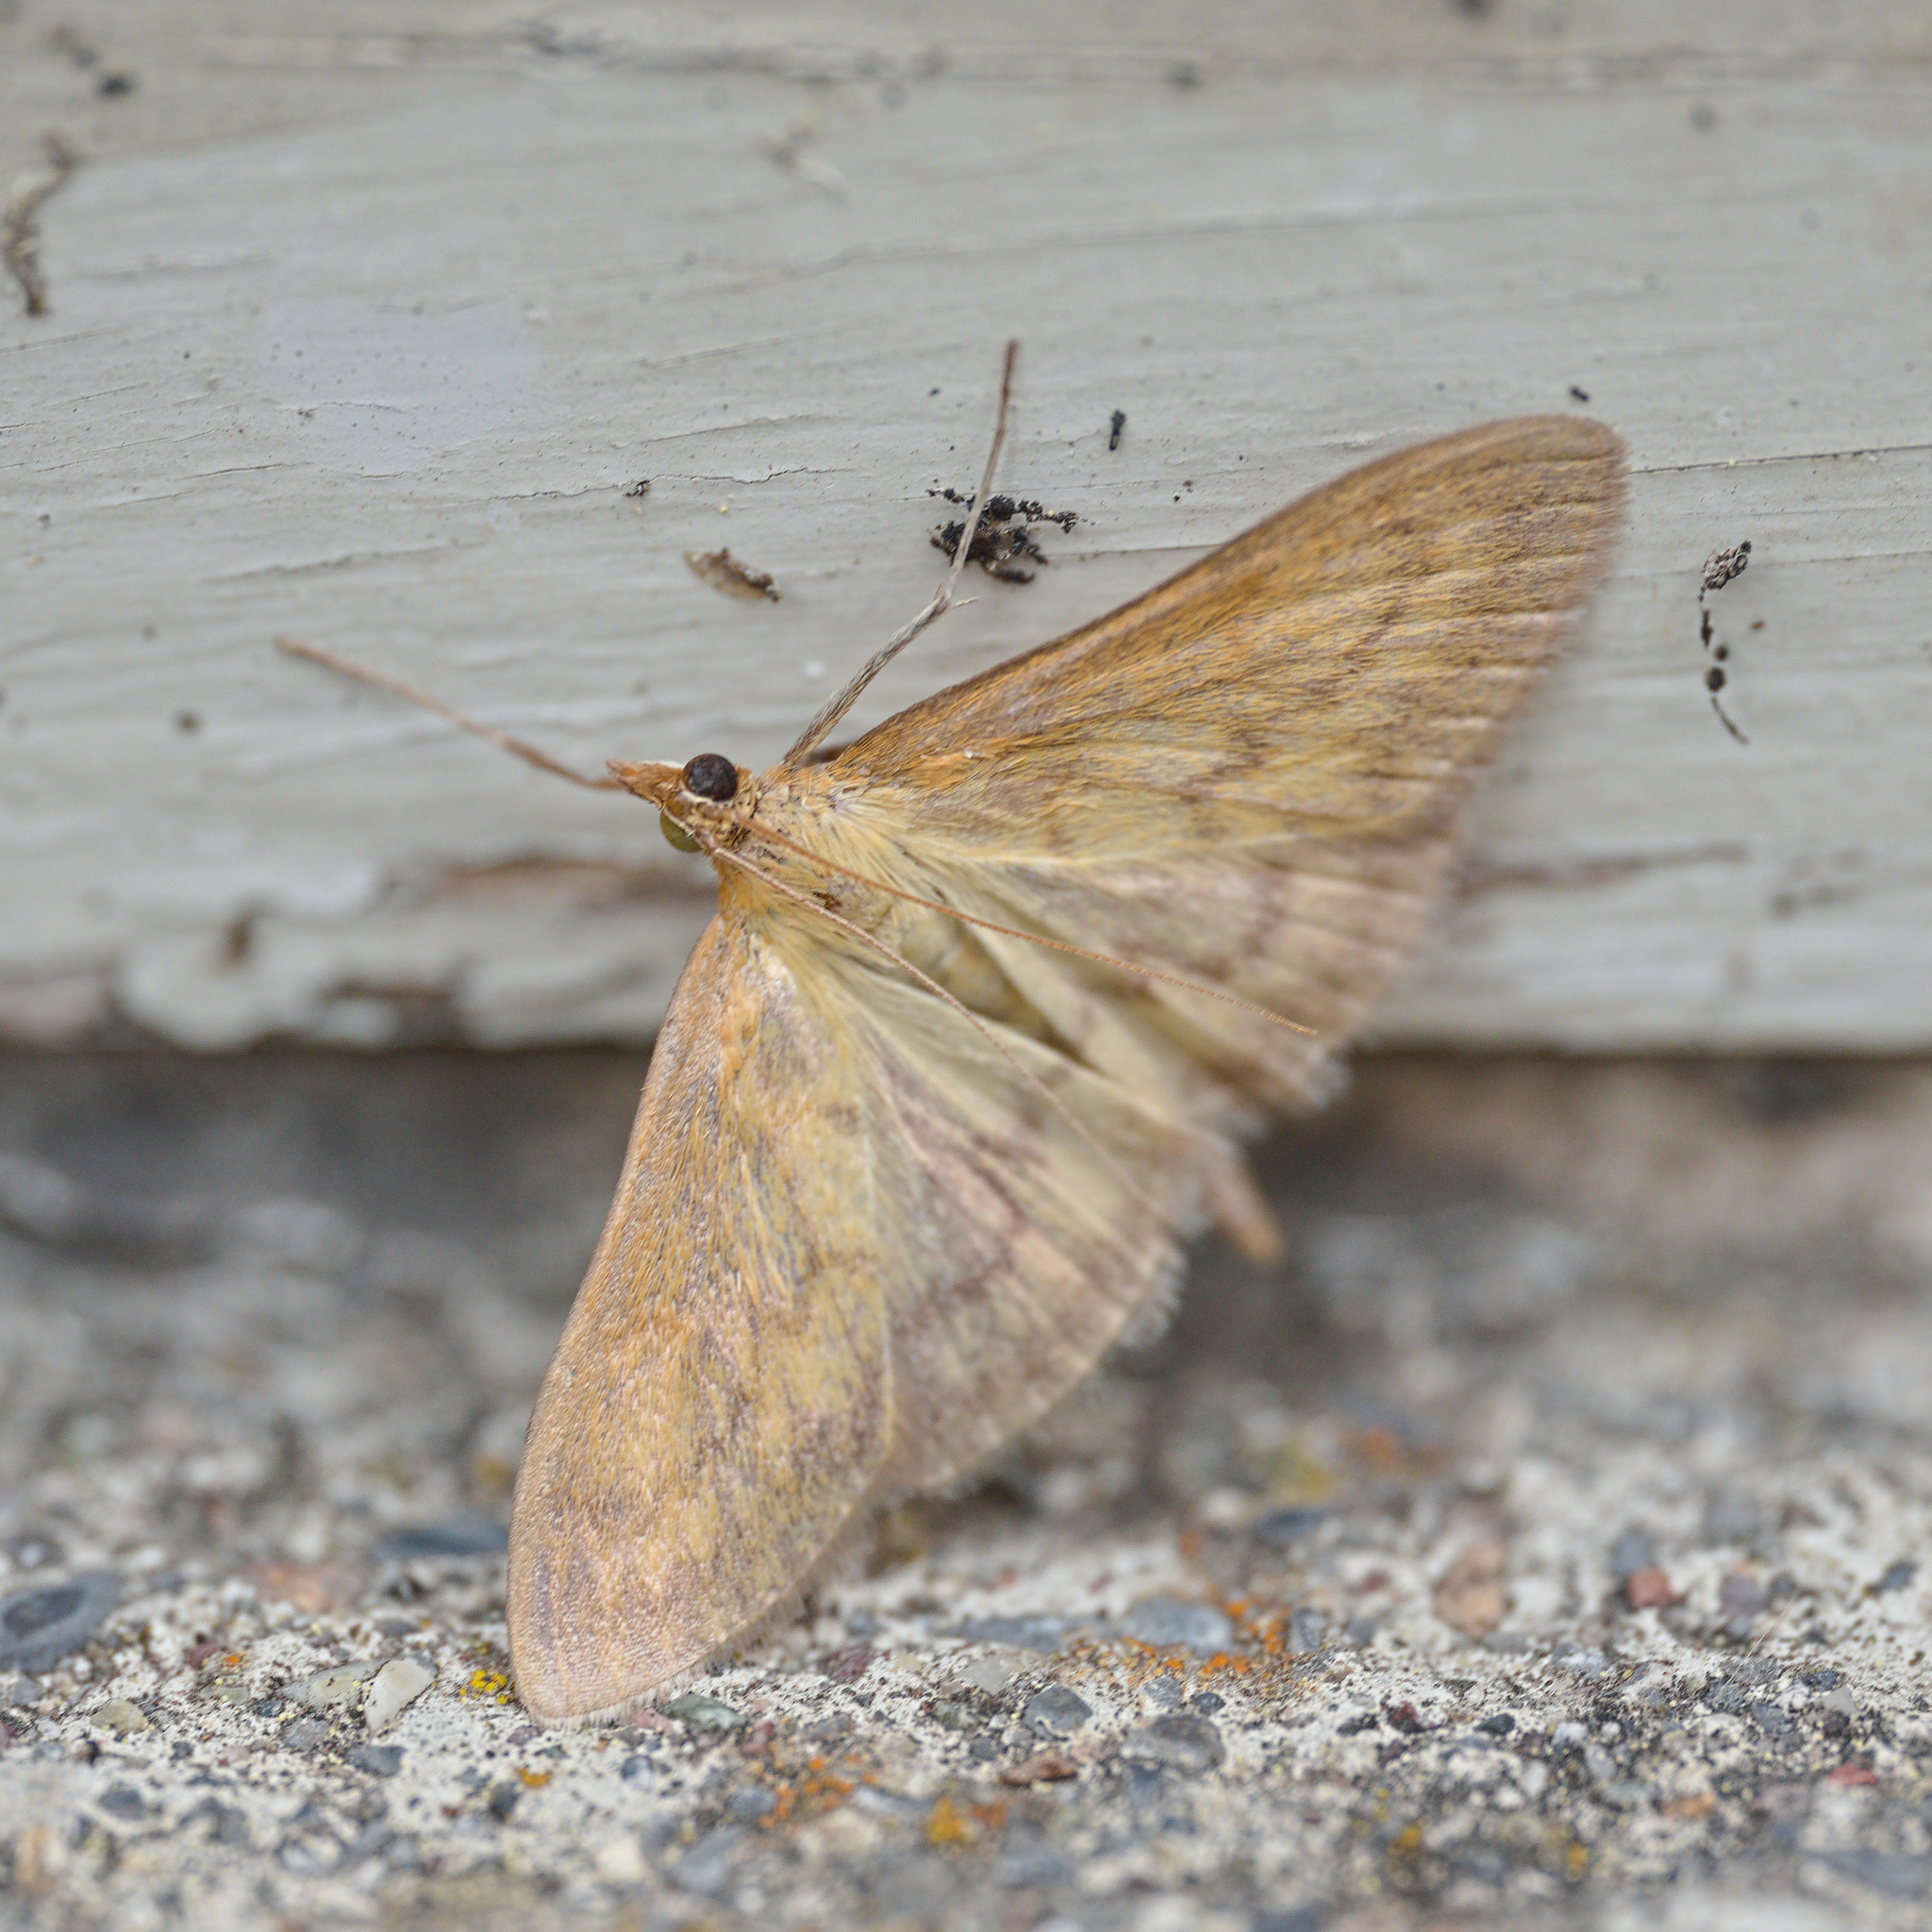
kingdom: Animalia
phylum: Arthropoda
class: Insecta
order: Lepidoptera
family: Crambidae
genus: Paratalanta
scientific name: Paratalanta pandalis
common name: Bordered pearl
